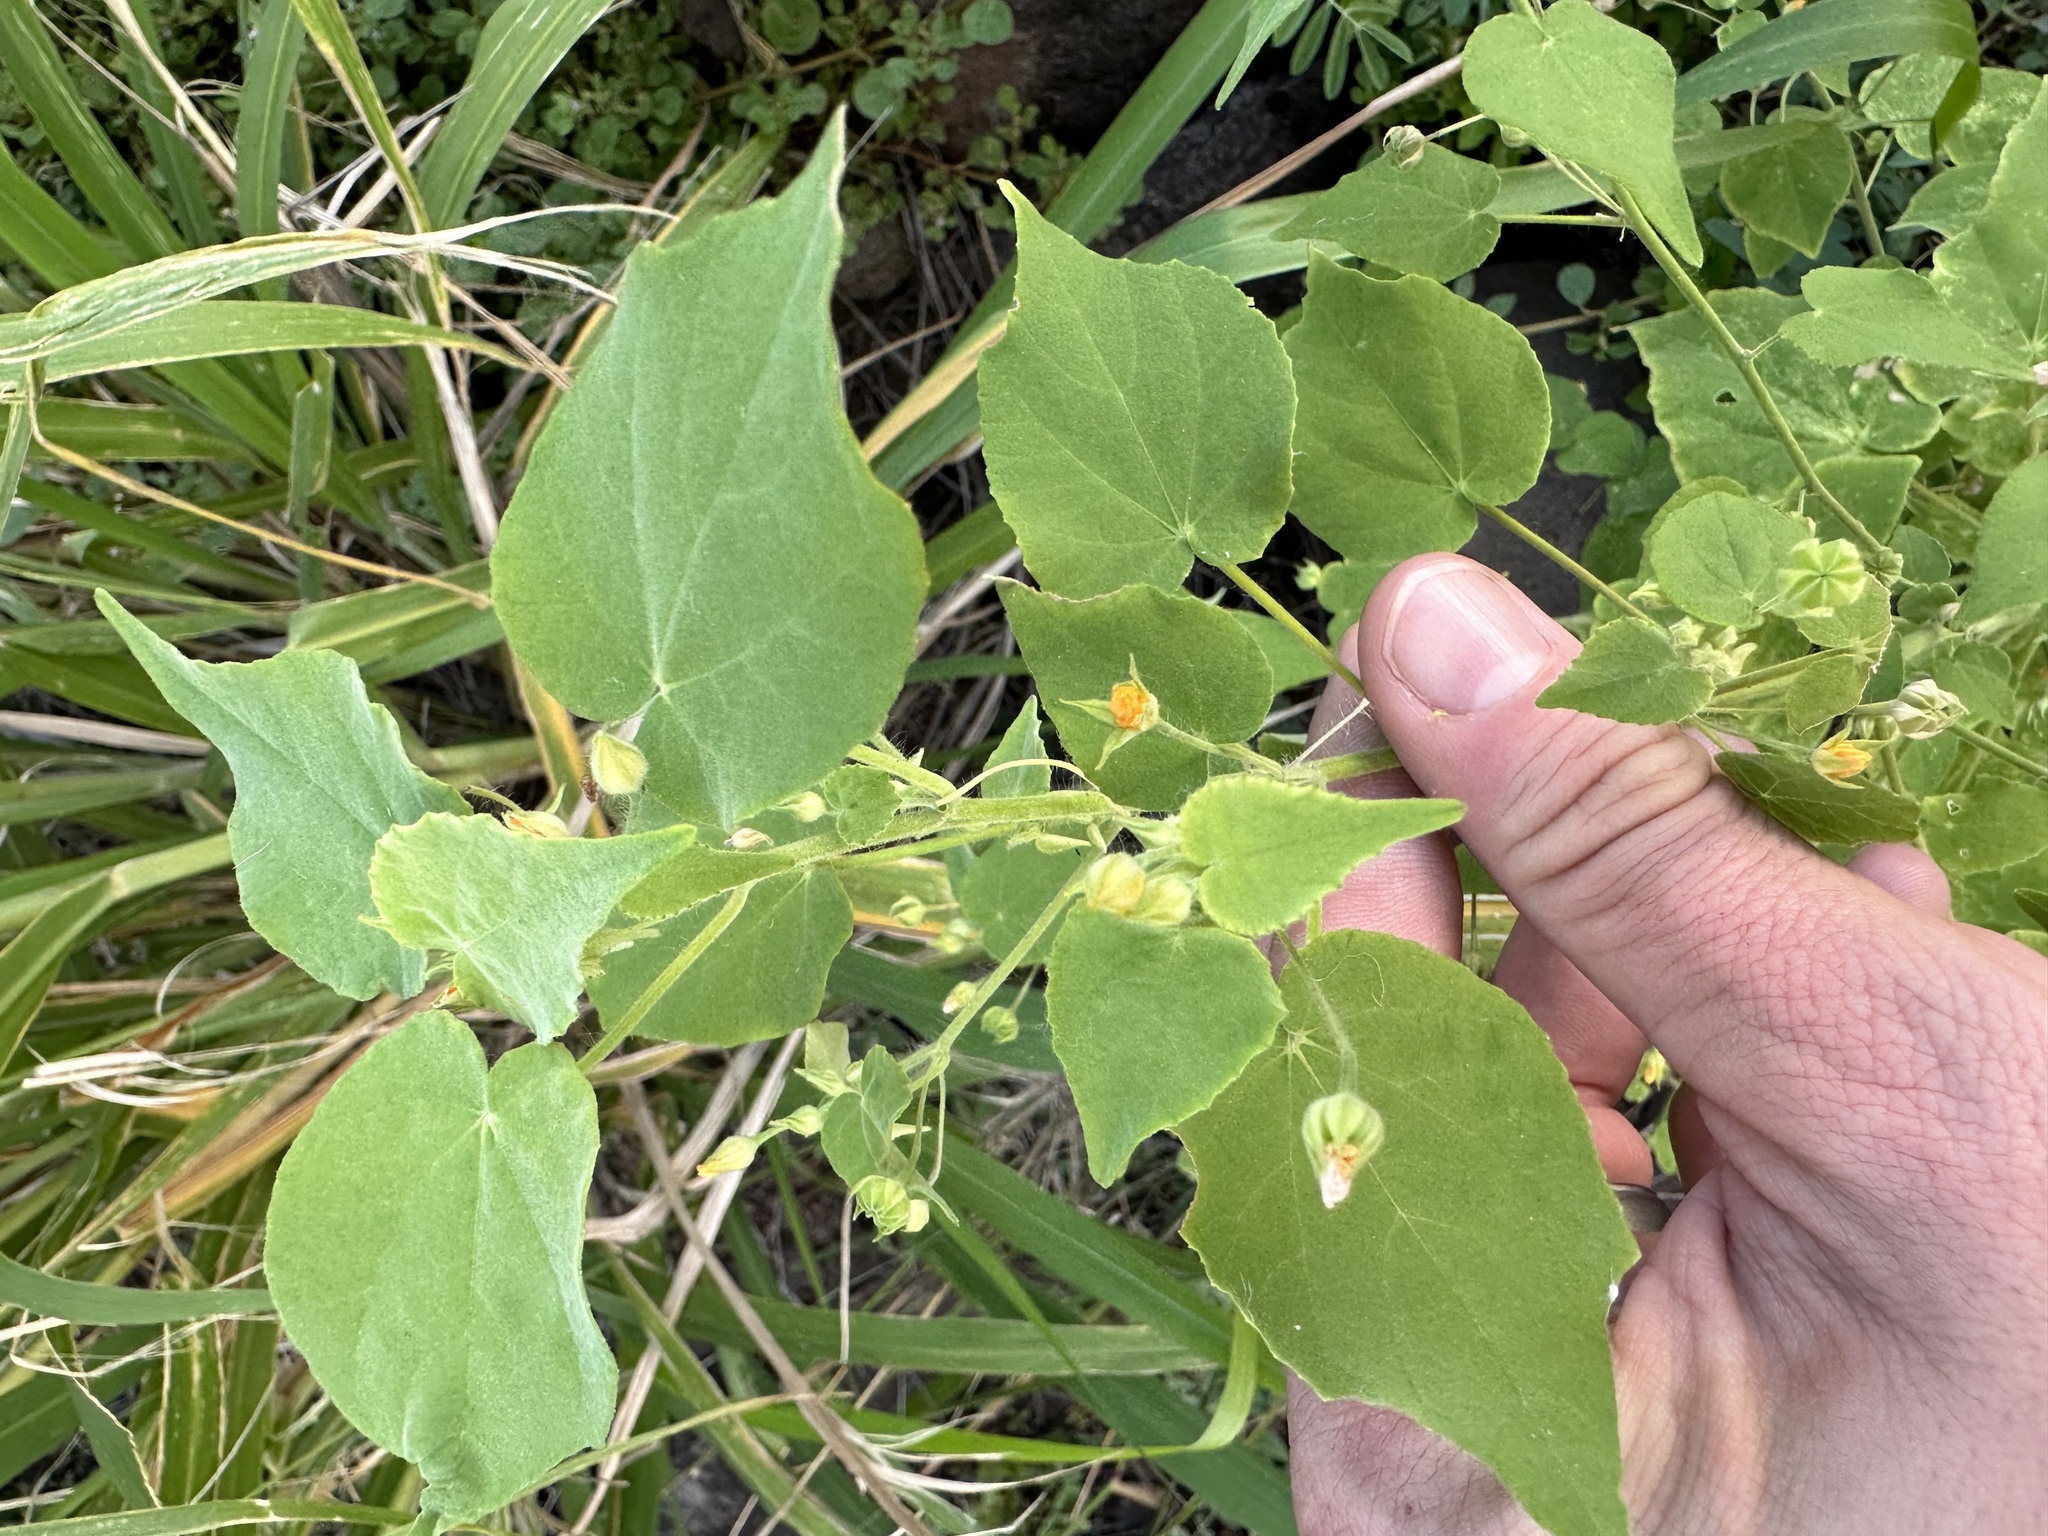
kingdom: Plantae
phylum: Tracheophyta
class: Magnoliopsida
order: Malvales
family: Malvaceae
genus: Abutilon
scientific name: Abutilon viscosum
